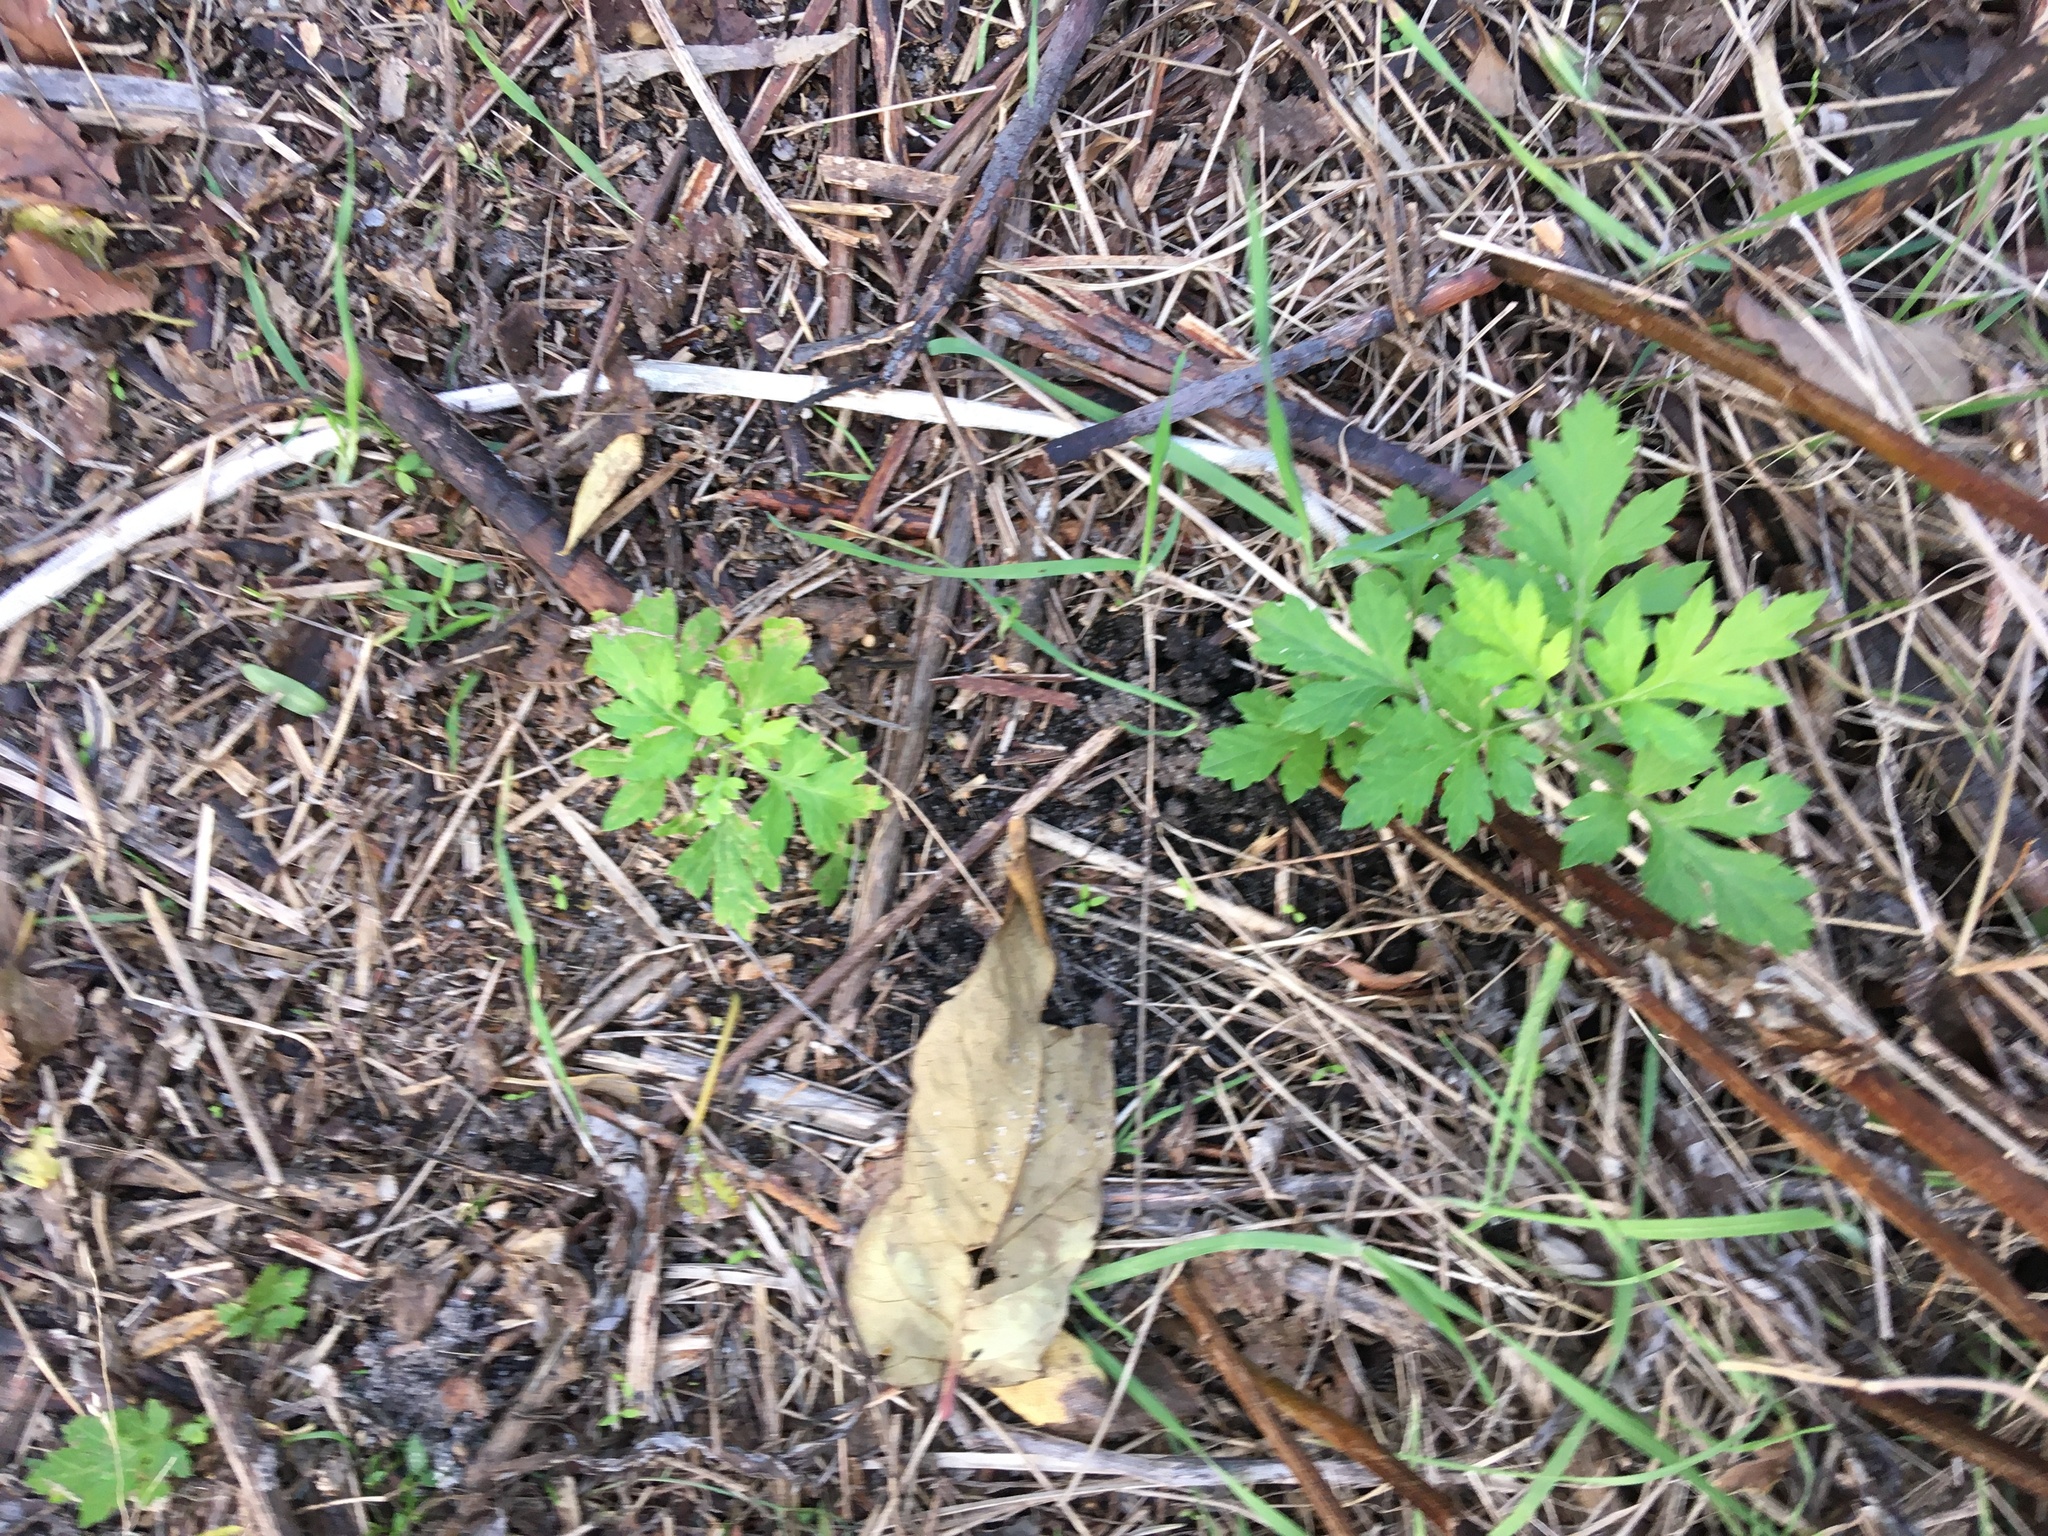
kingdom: Plantae
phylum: Tracheophyta
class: Magnoliopsida
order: Asterales
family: Asteraceae
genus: Artemisia
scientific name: Artemisia vulgaris
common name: Mugwort
